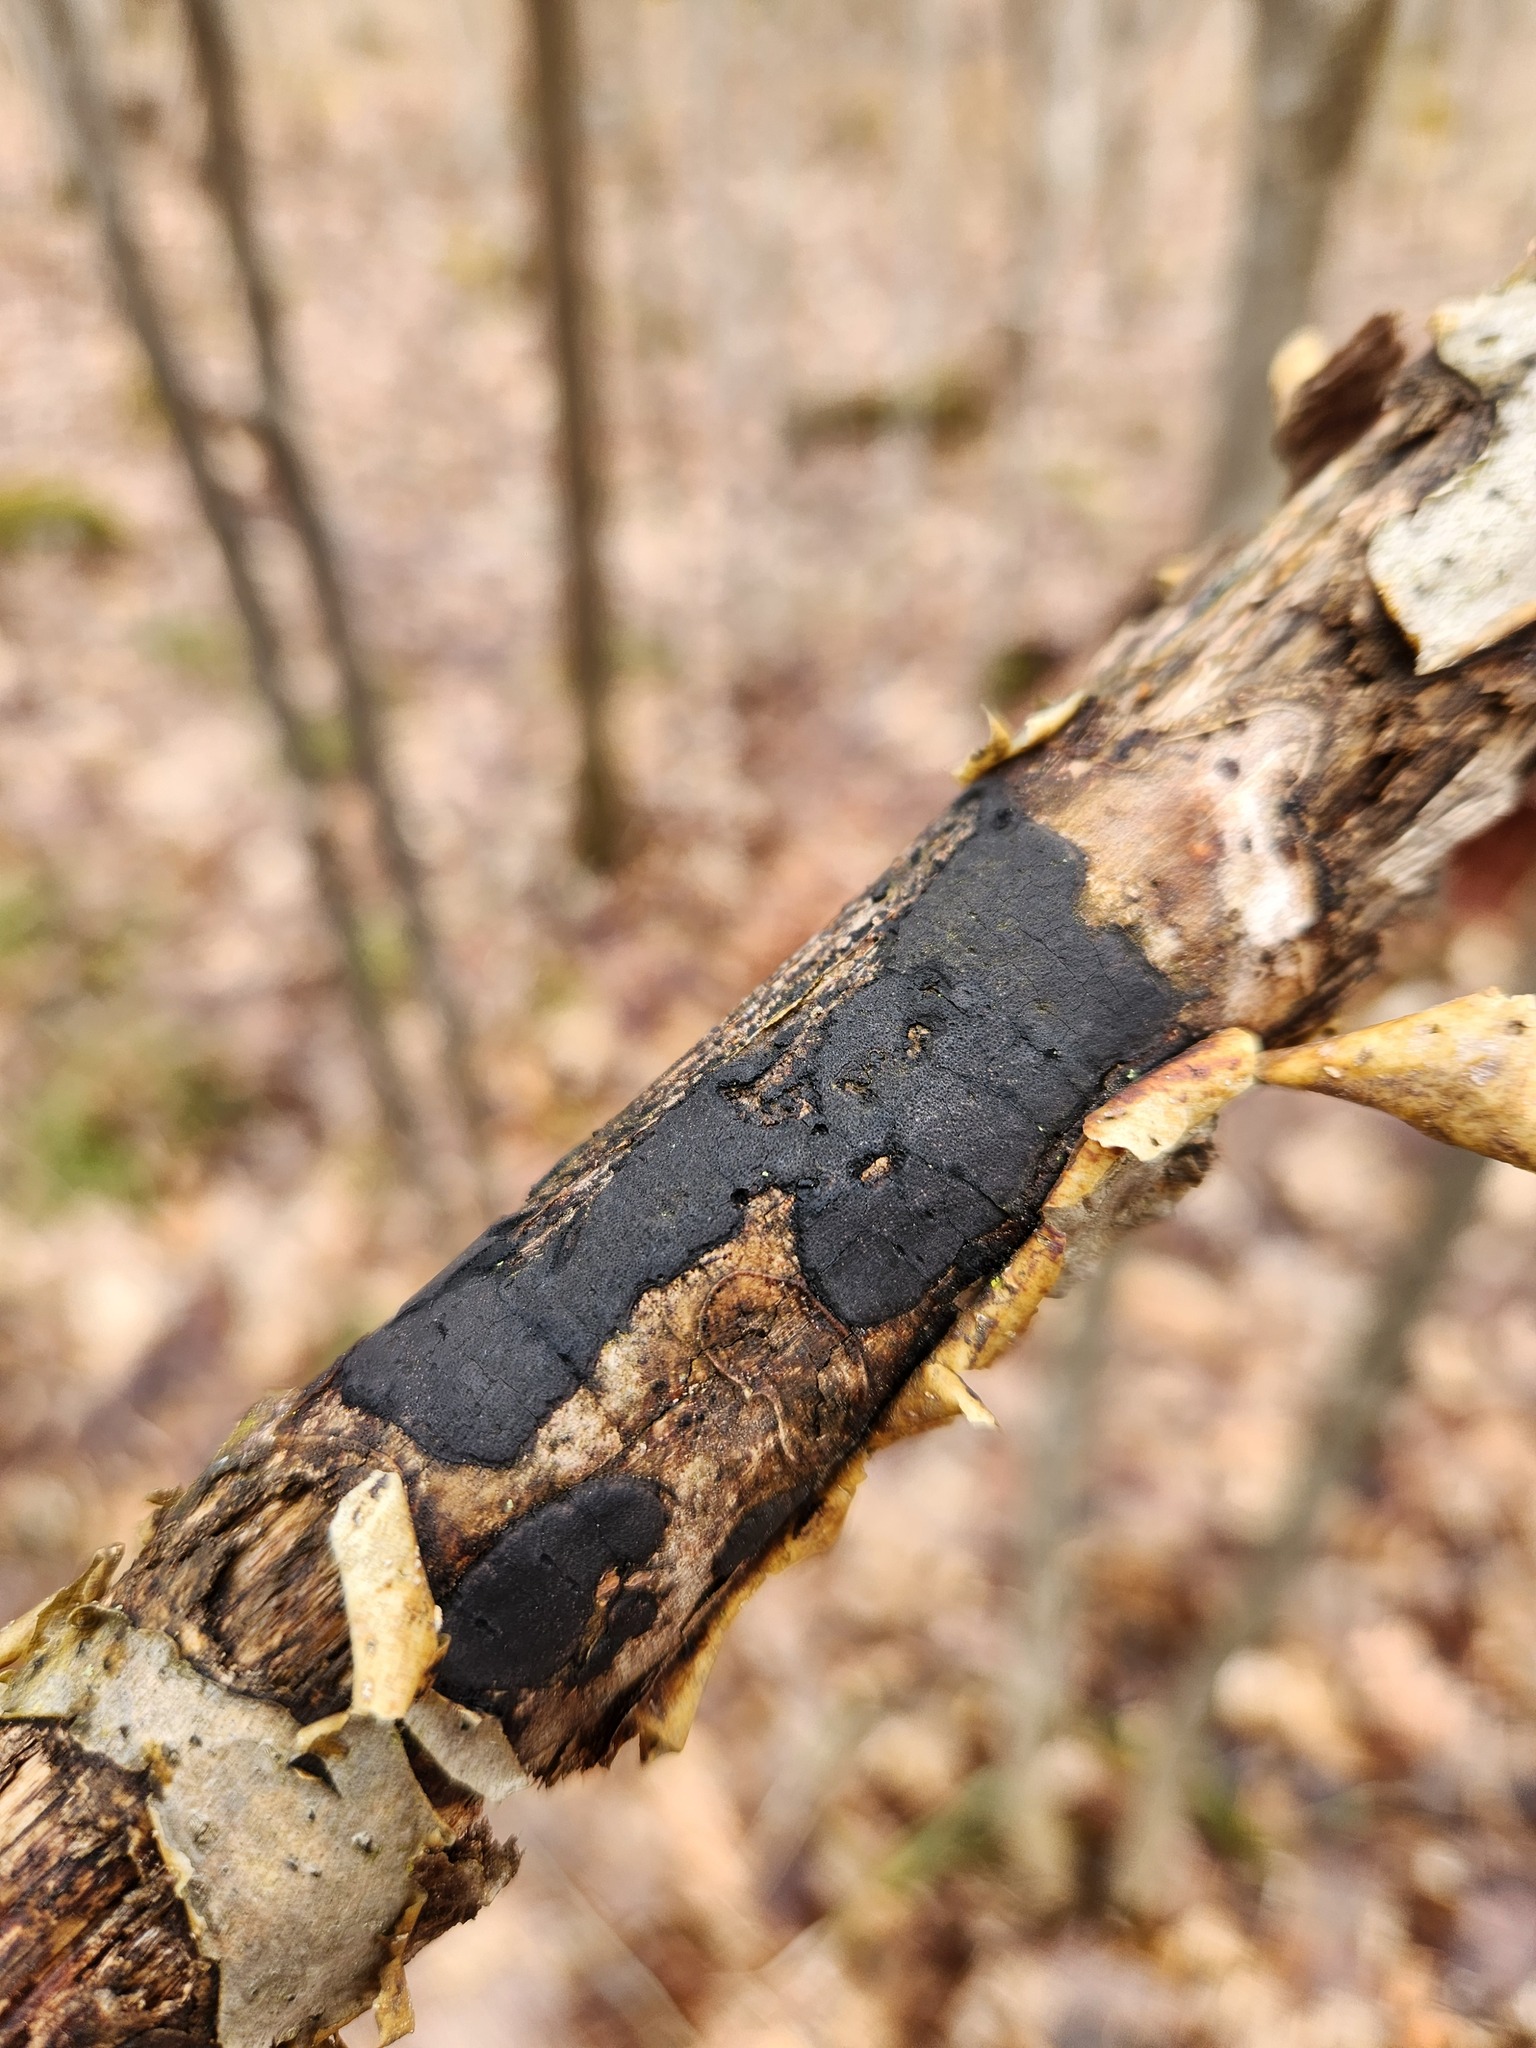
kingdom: Fungi
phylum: Ascomycota
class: Sordariomycetes
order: Xylariales
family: Diatrypaceae
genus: Diatrype
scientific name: Diatrype stigma
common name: Common tarcrust
